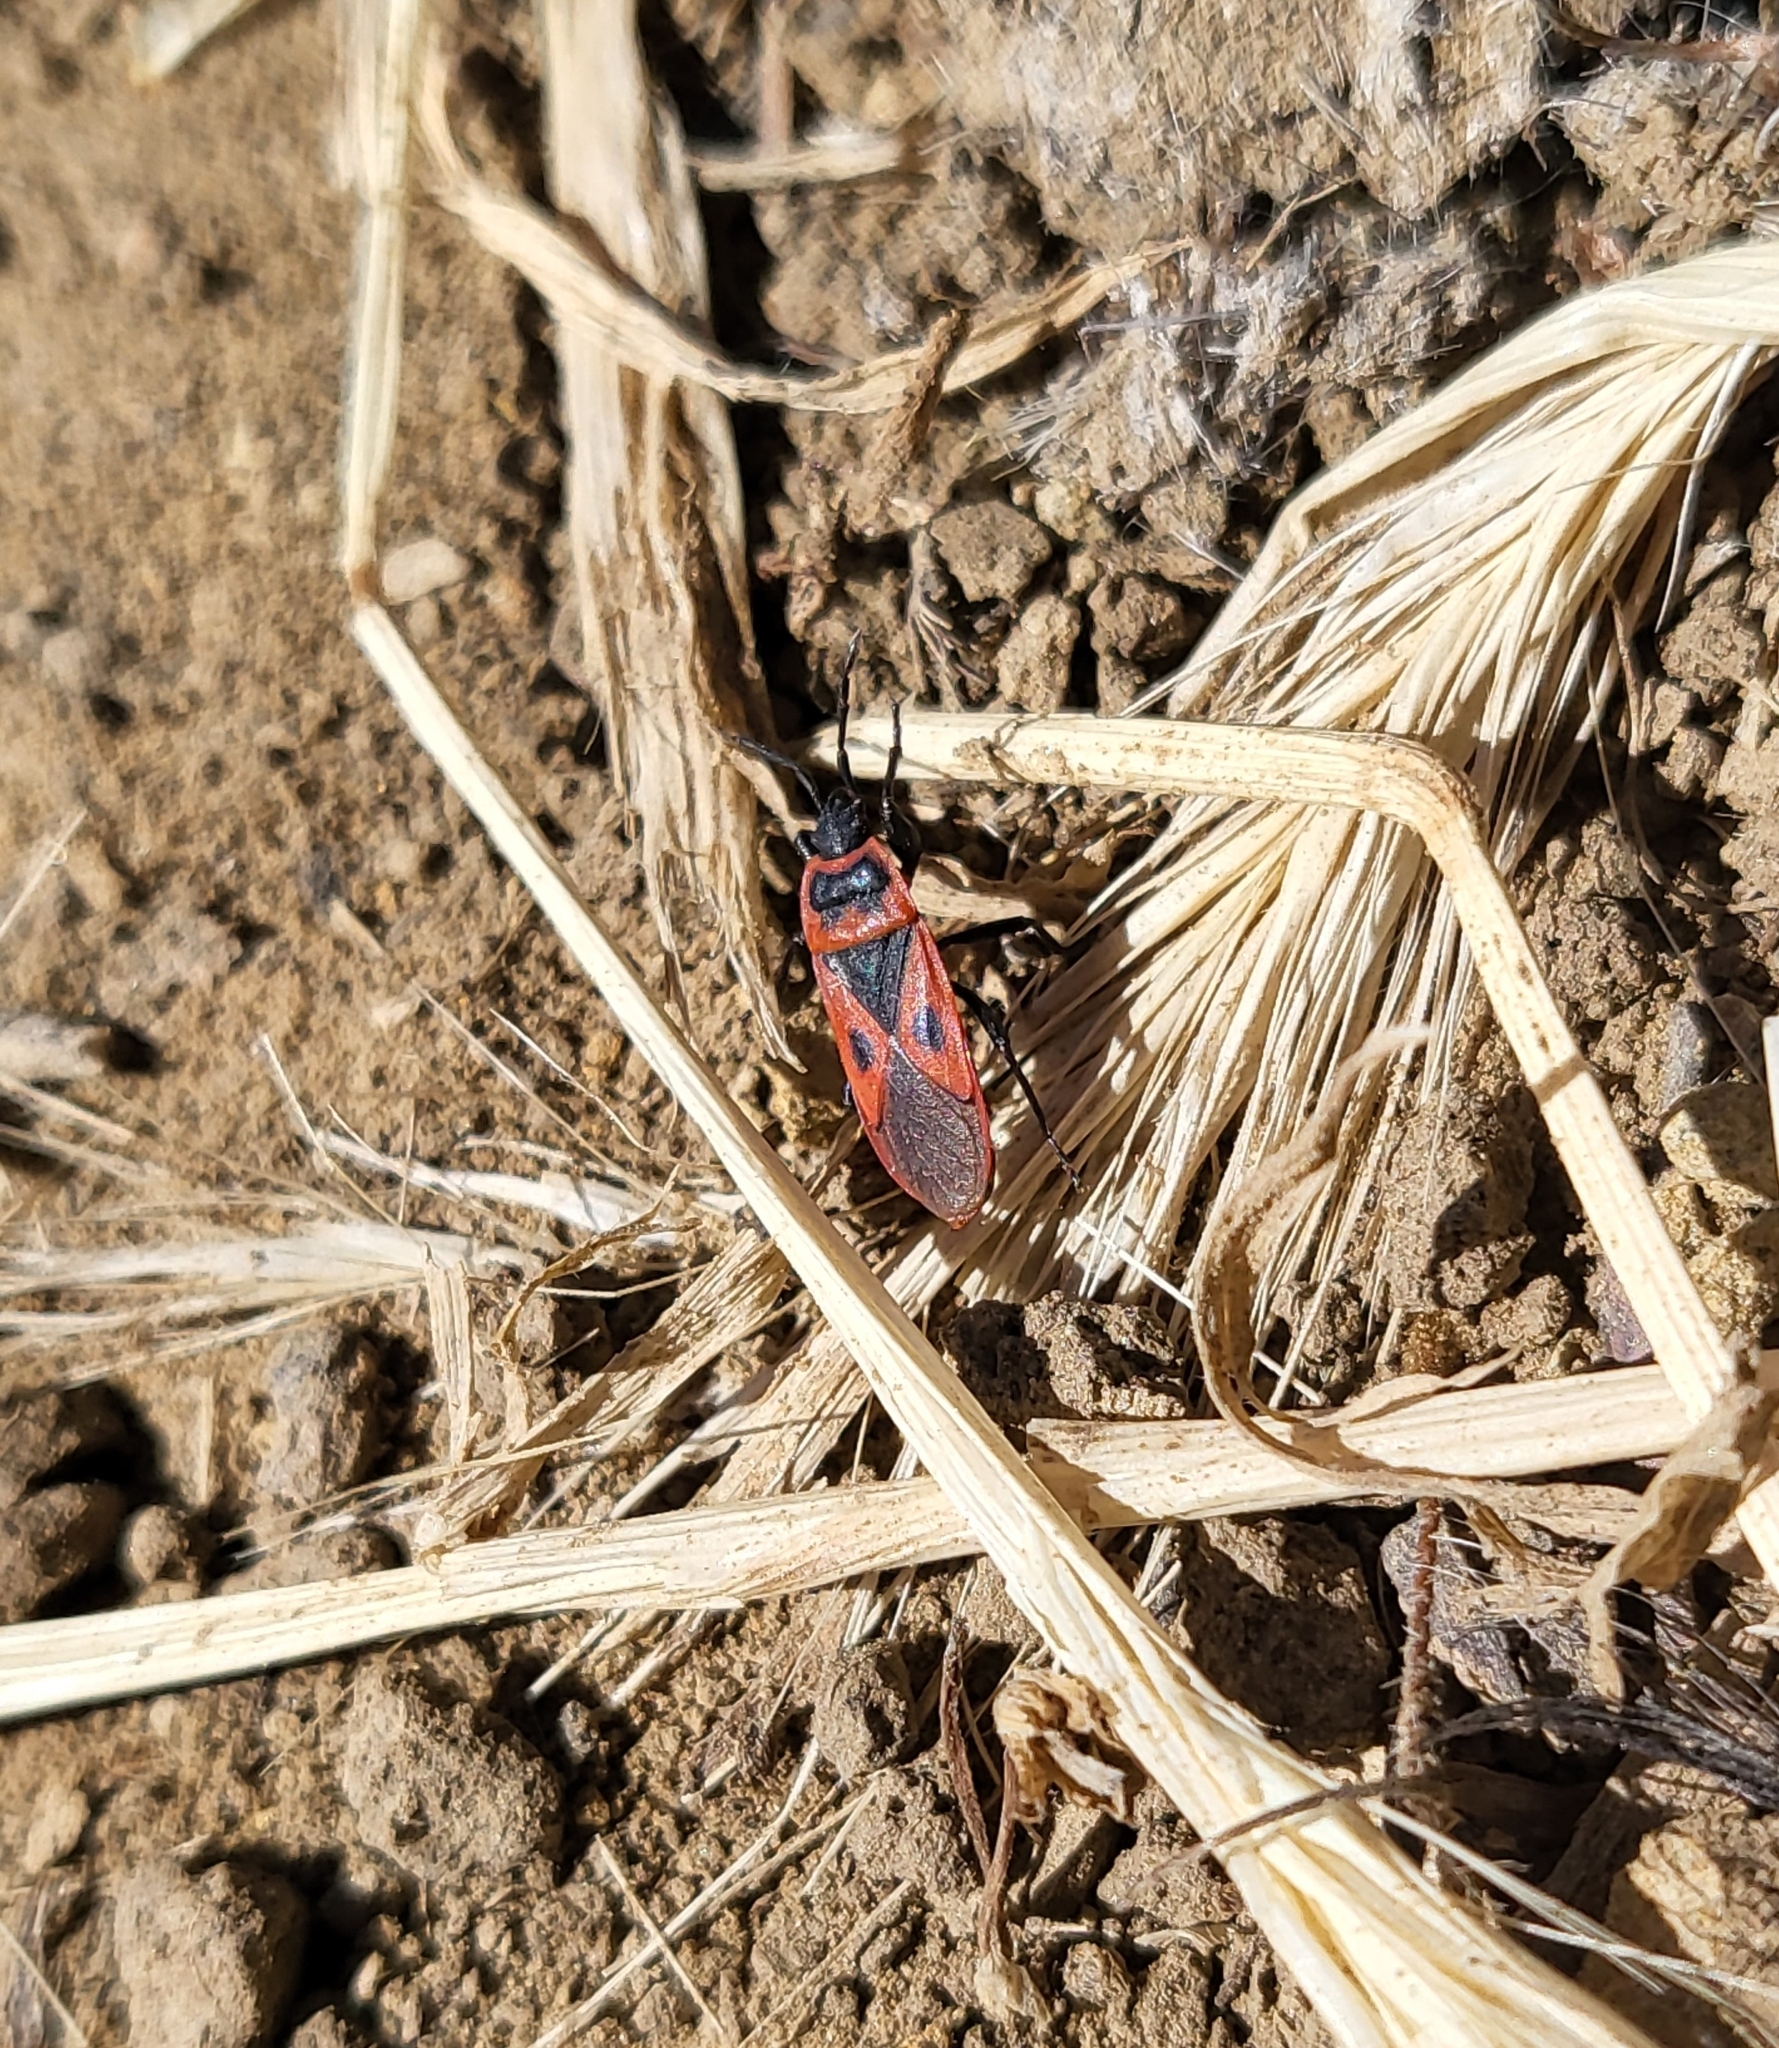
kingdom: Animalia
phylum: Arthropoda
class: Insecta
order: Hemiptera
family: Pyrrhocoridae
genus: Scantius
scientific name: Scantius aegyptius
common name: Red bug
